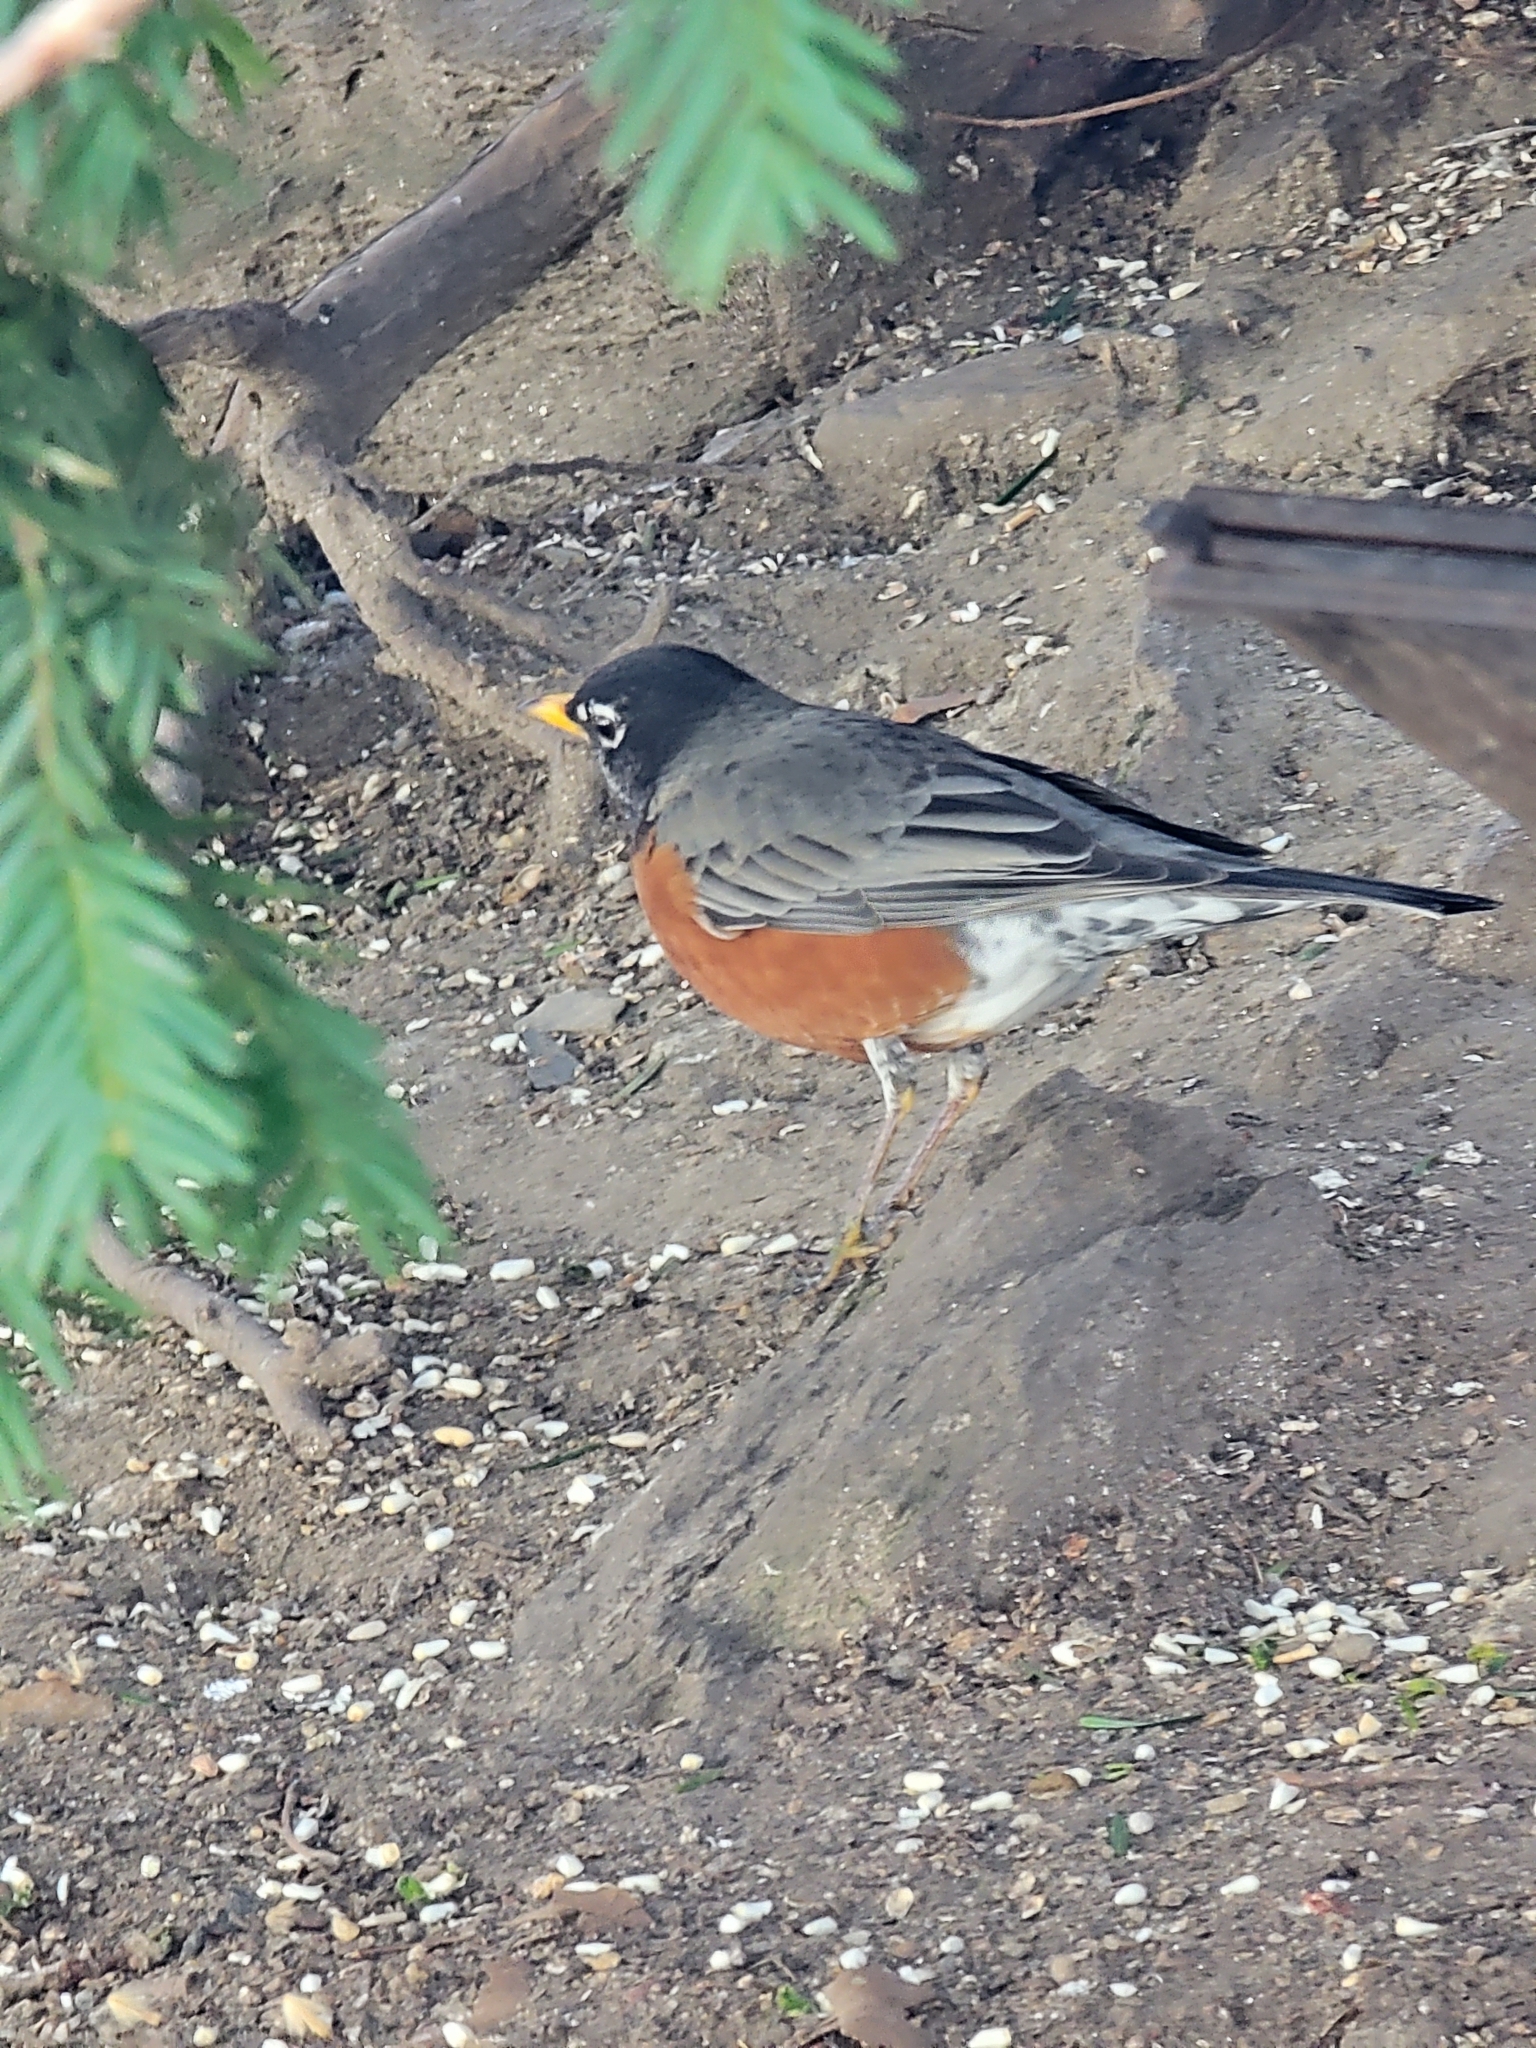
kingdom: Animalia
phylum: Chordata
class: Aves
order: Passeriformes
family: Turdidae
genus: Turdus
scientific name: Turdus migratorius
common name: American robin
